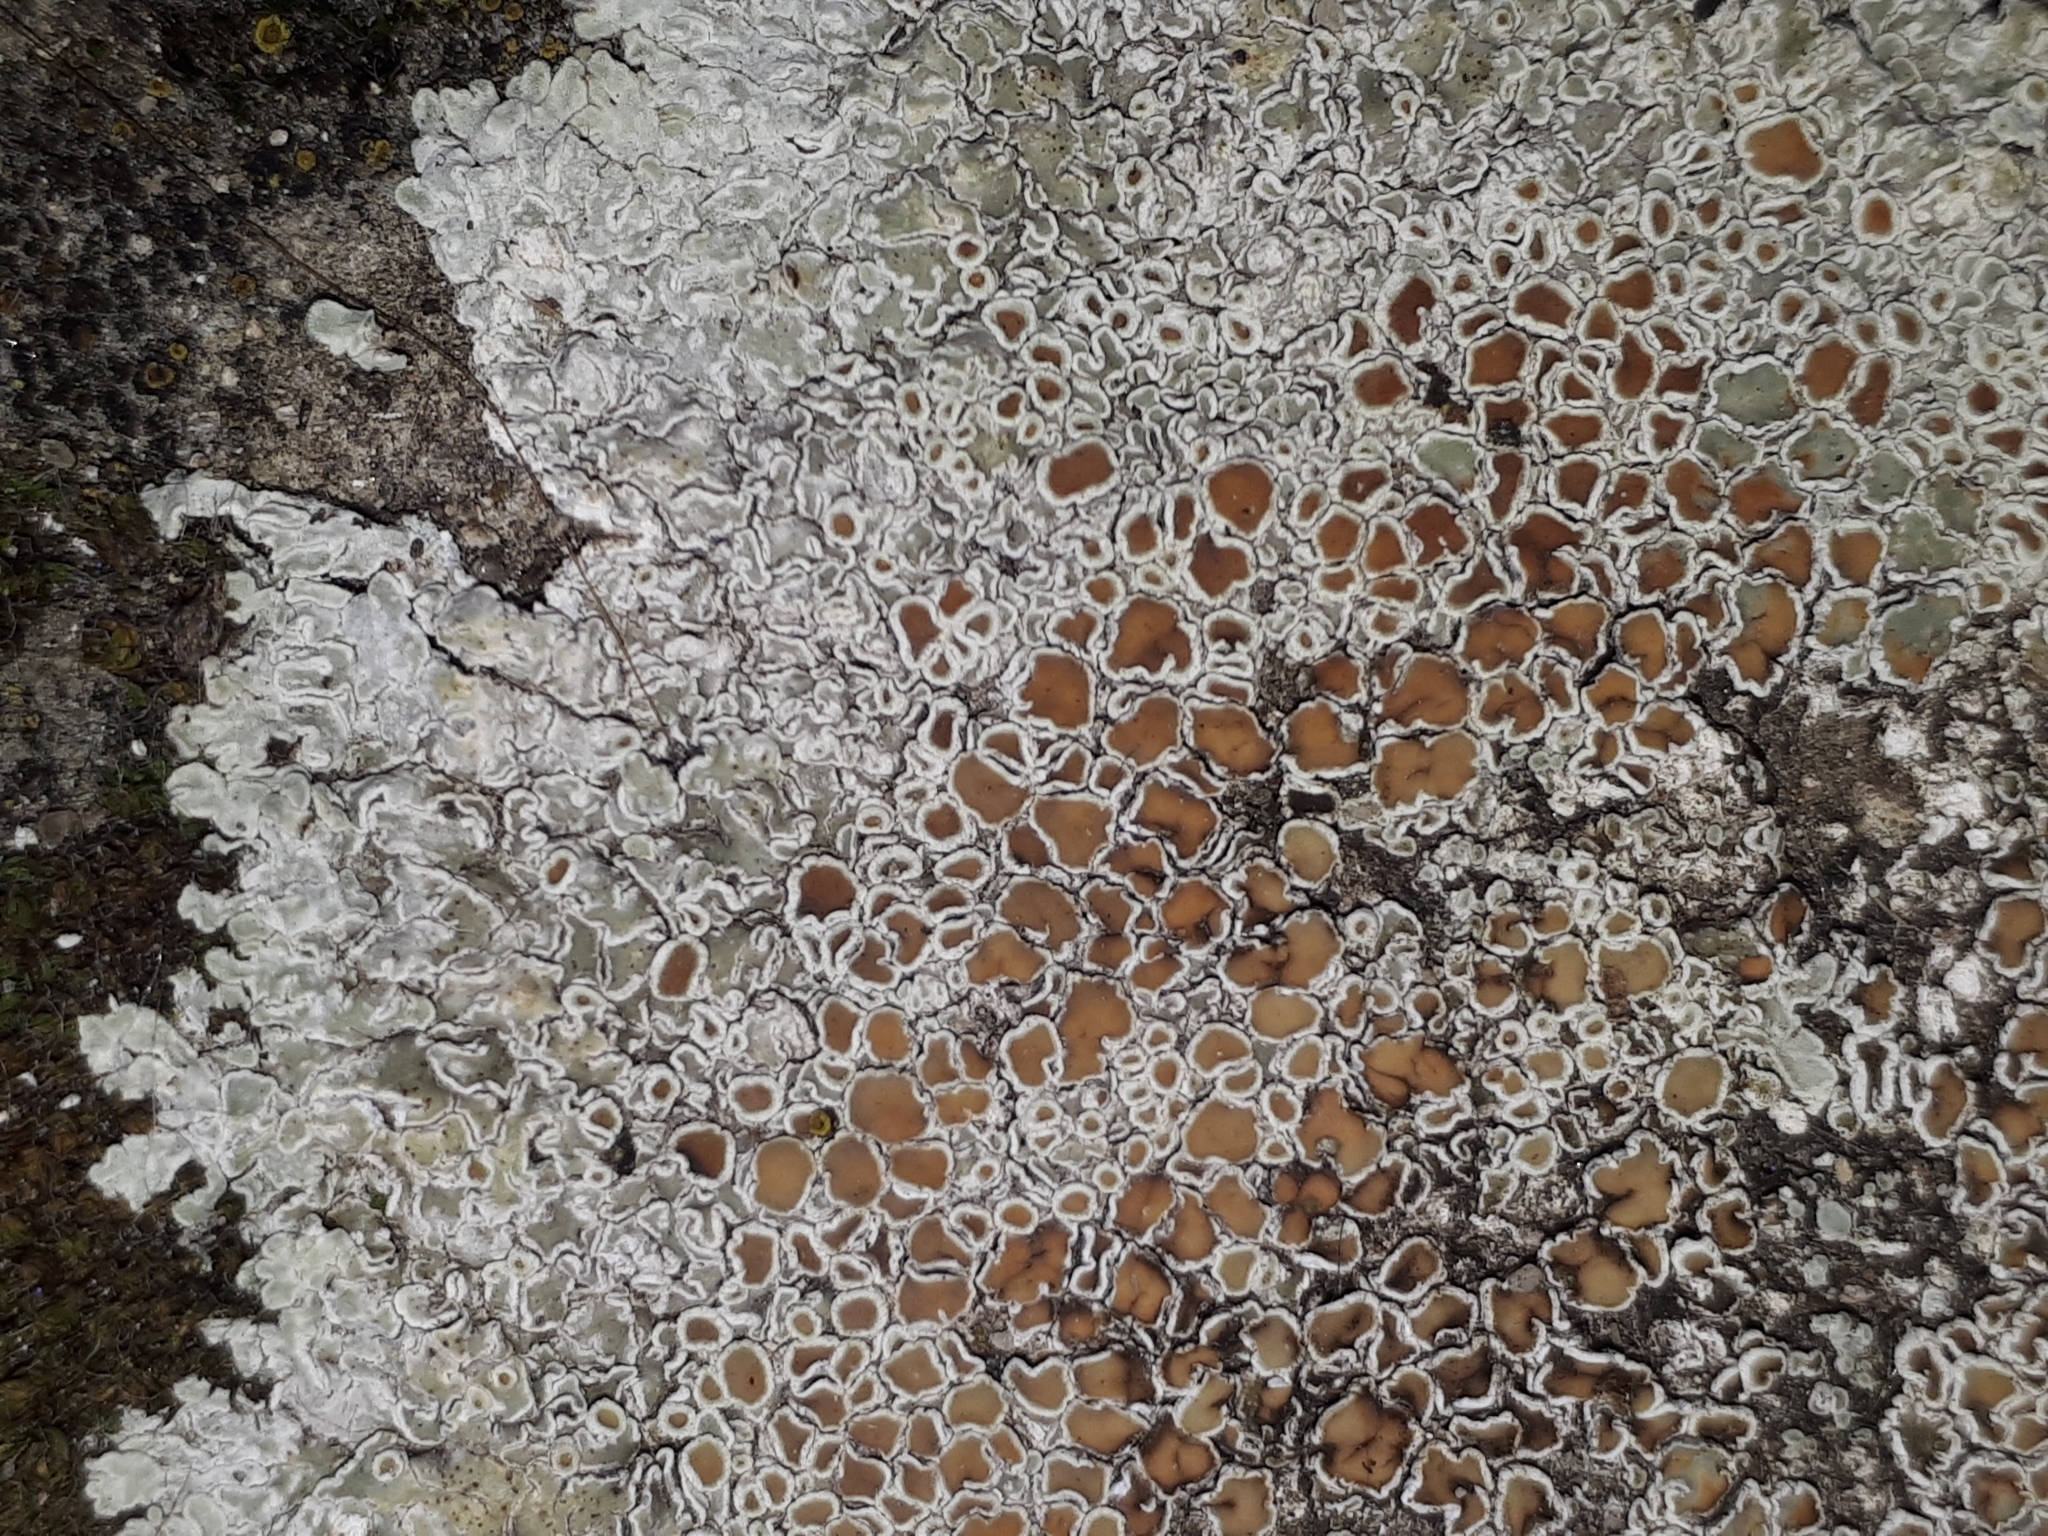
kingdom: Fungi
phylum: Ascomycota
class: Lecanoromycetes
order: Lecanorales
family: Lecanoraceae
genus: Protoparmeliopsis
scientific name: Protoparmeliopsis muralis
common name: Stonewall rim lichen
